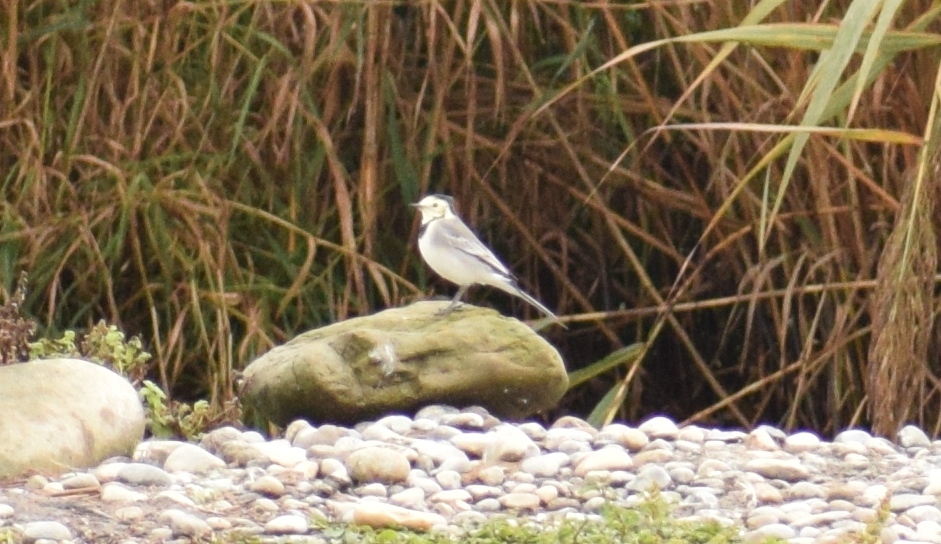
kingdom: Animalia
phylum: Chordata
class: Aves
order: Passeriformes
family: Motacillidae
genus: Motacilla
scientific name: Motacilla alba
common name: White wagtail
